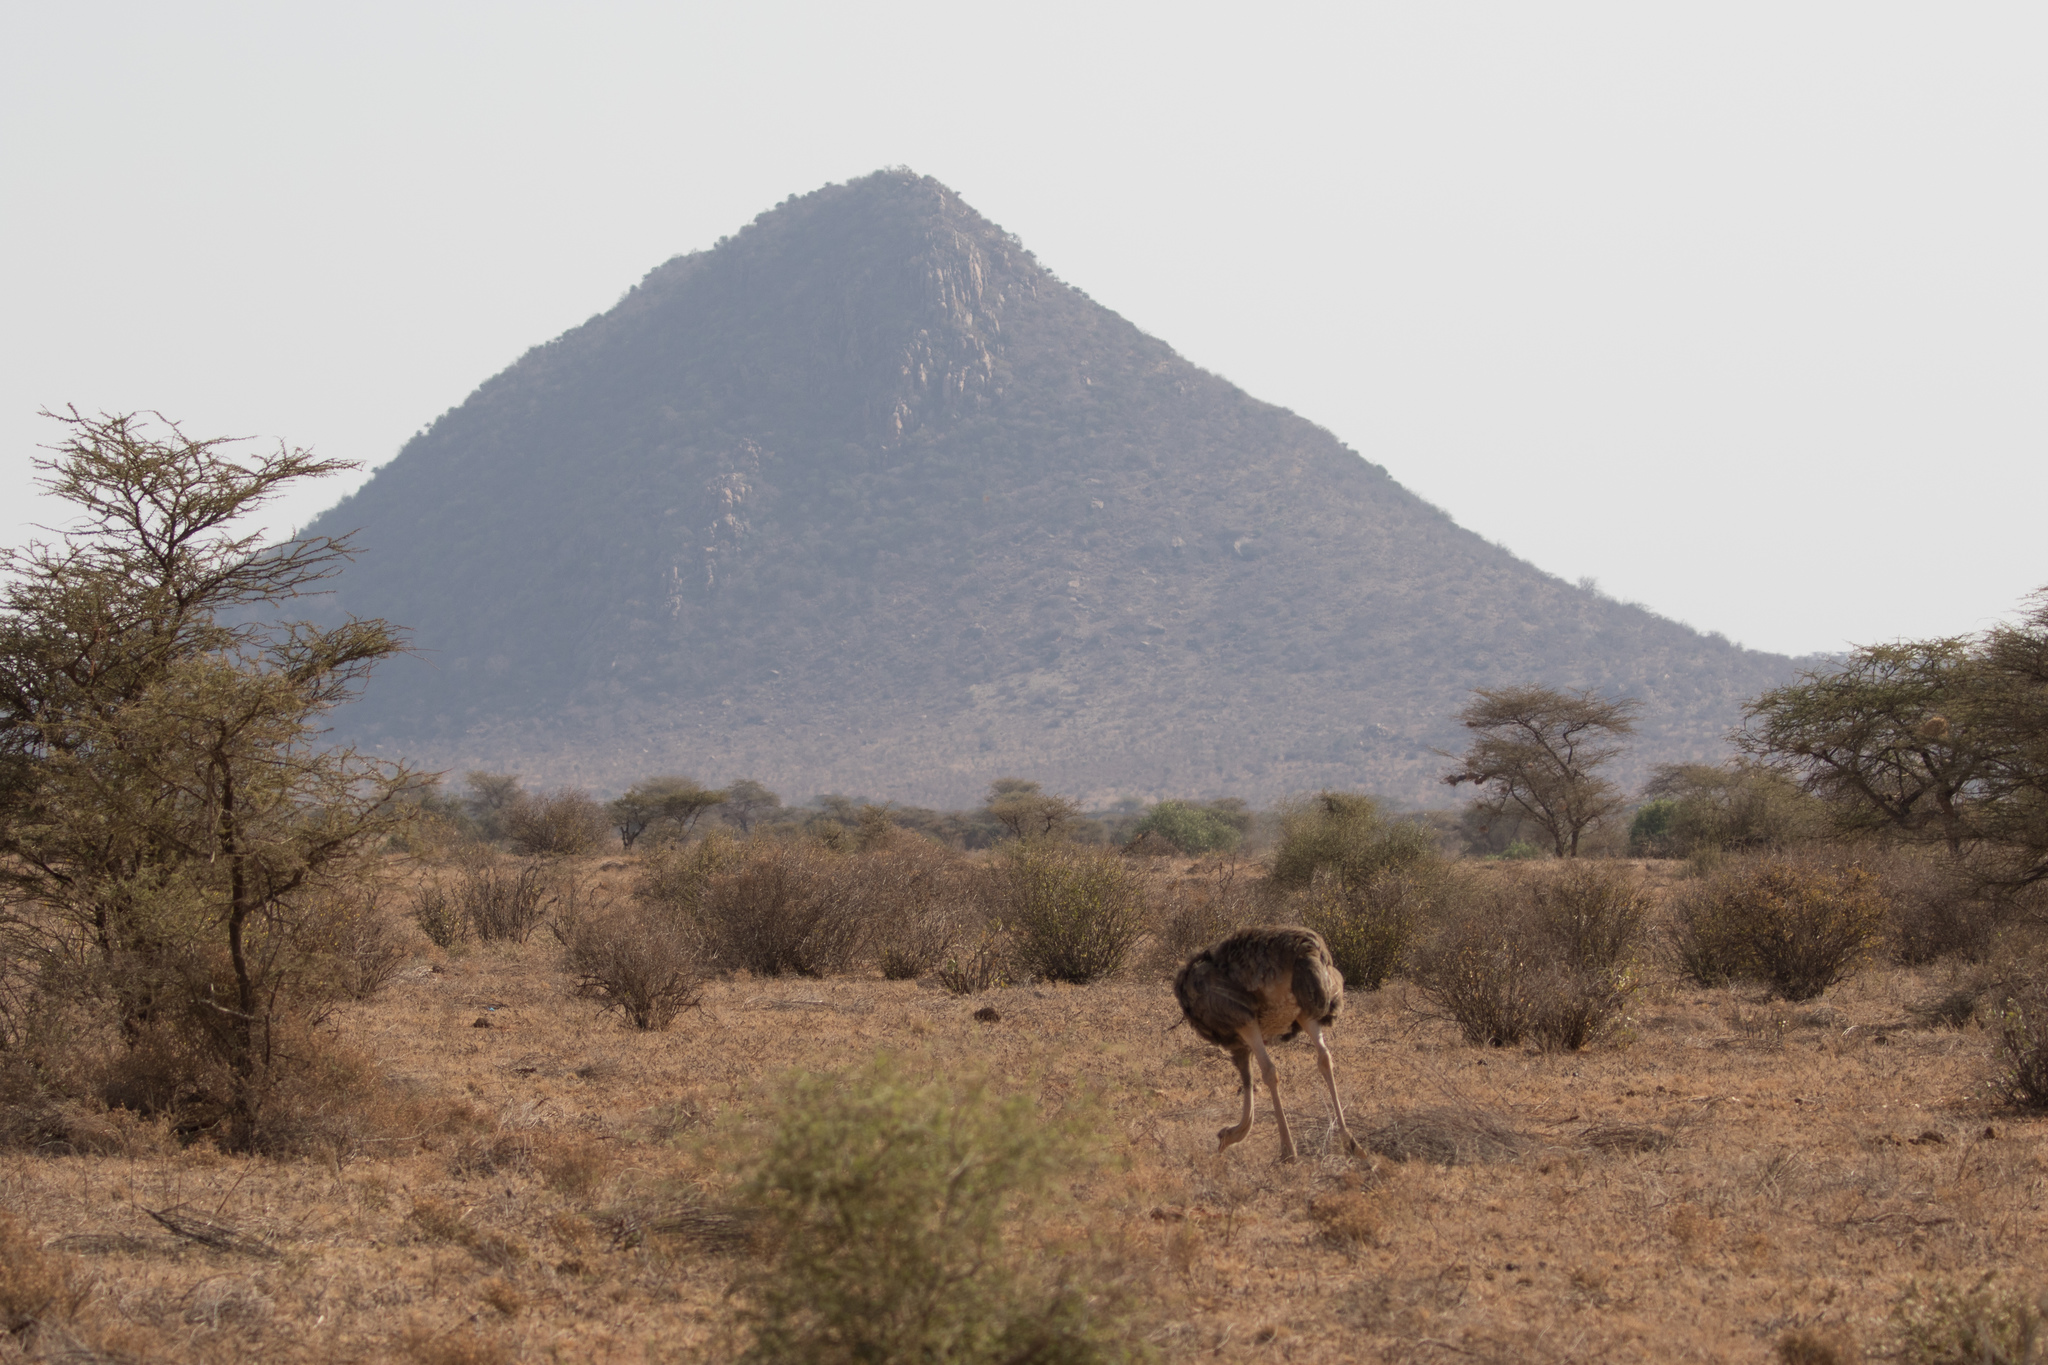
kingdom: Animalia
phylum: Chordata
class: Aves
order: Struthioniformes
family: Struthionidae
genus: Struthio
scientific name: Struthio molybdophanes
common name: Somali ostrich
